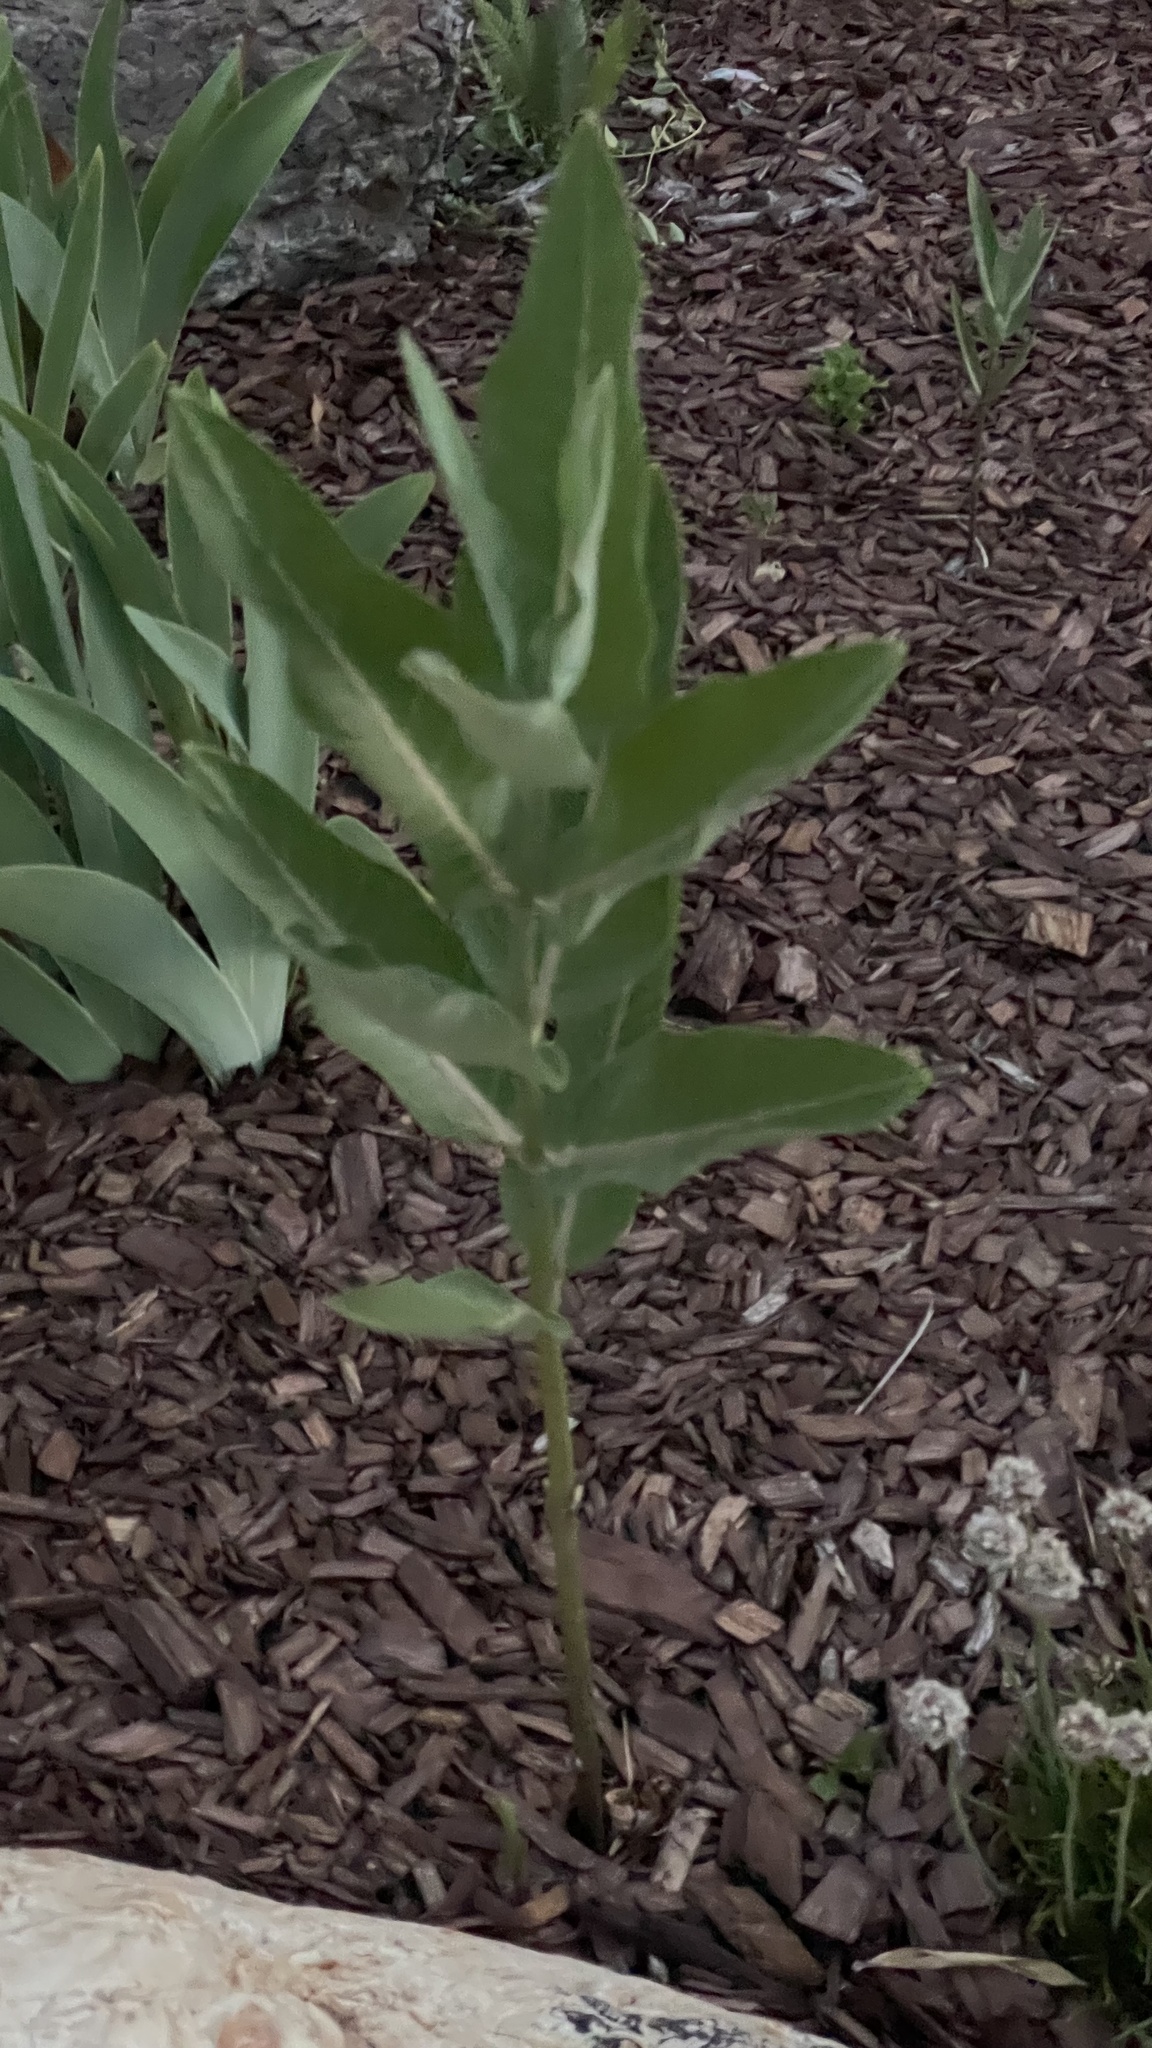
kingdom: Plantae
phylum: Tracheophyta
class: Magnoliopsida
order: Gentianales
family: Apocynaceae
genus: Asclepias
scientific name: Asclepias speciosa
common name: Showy milkweed
